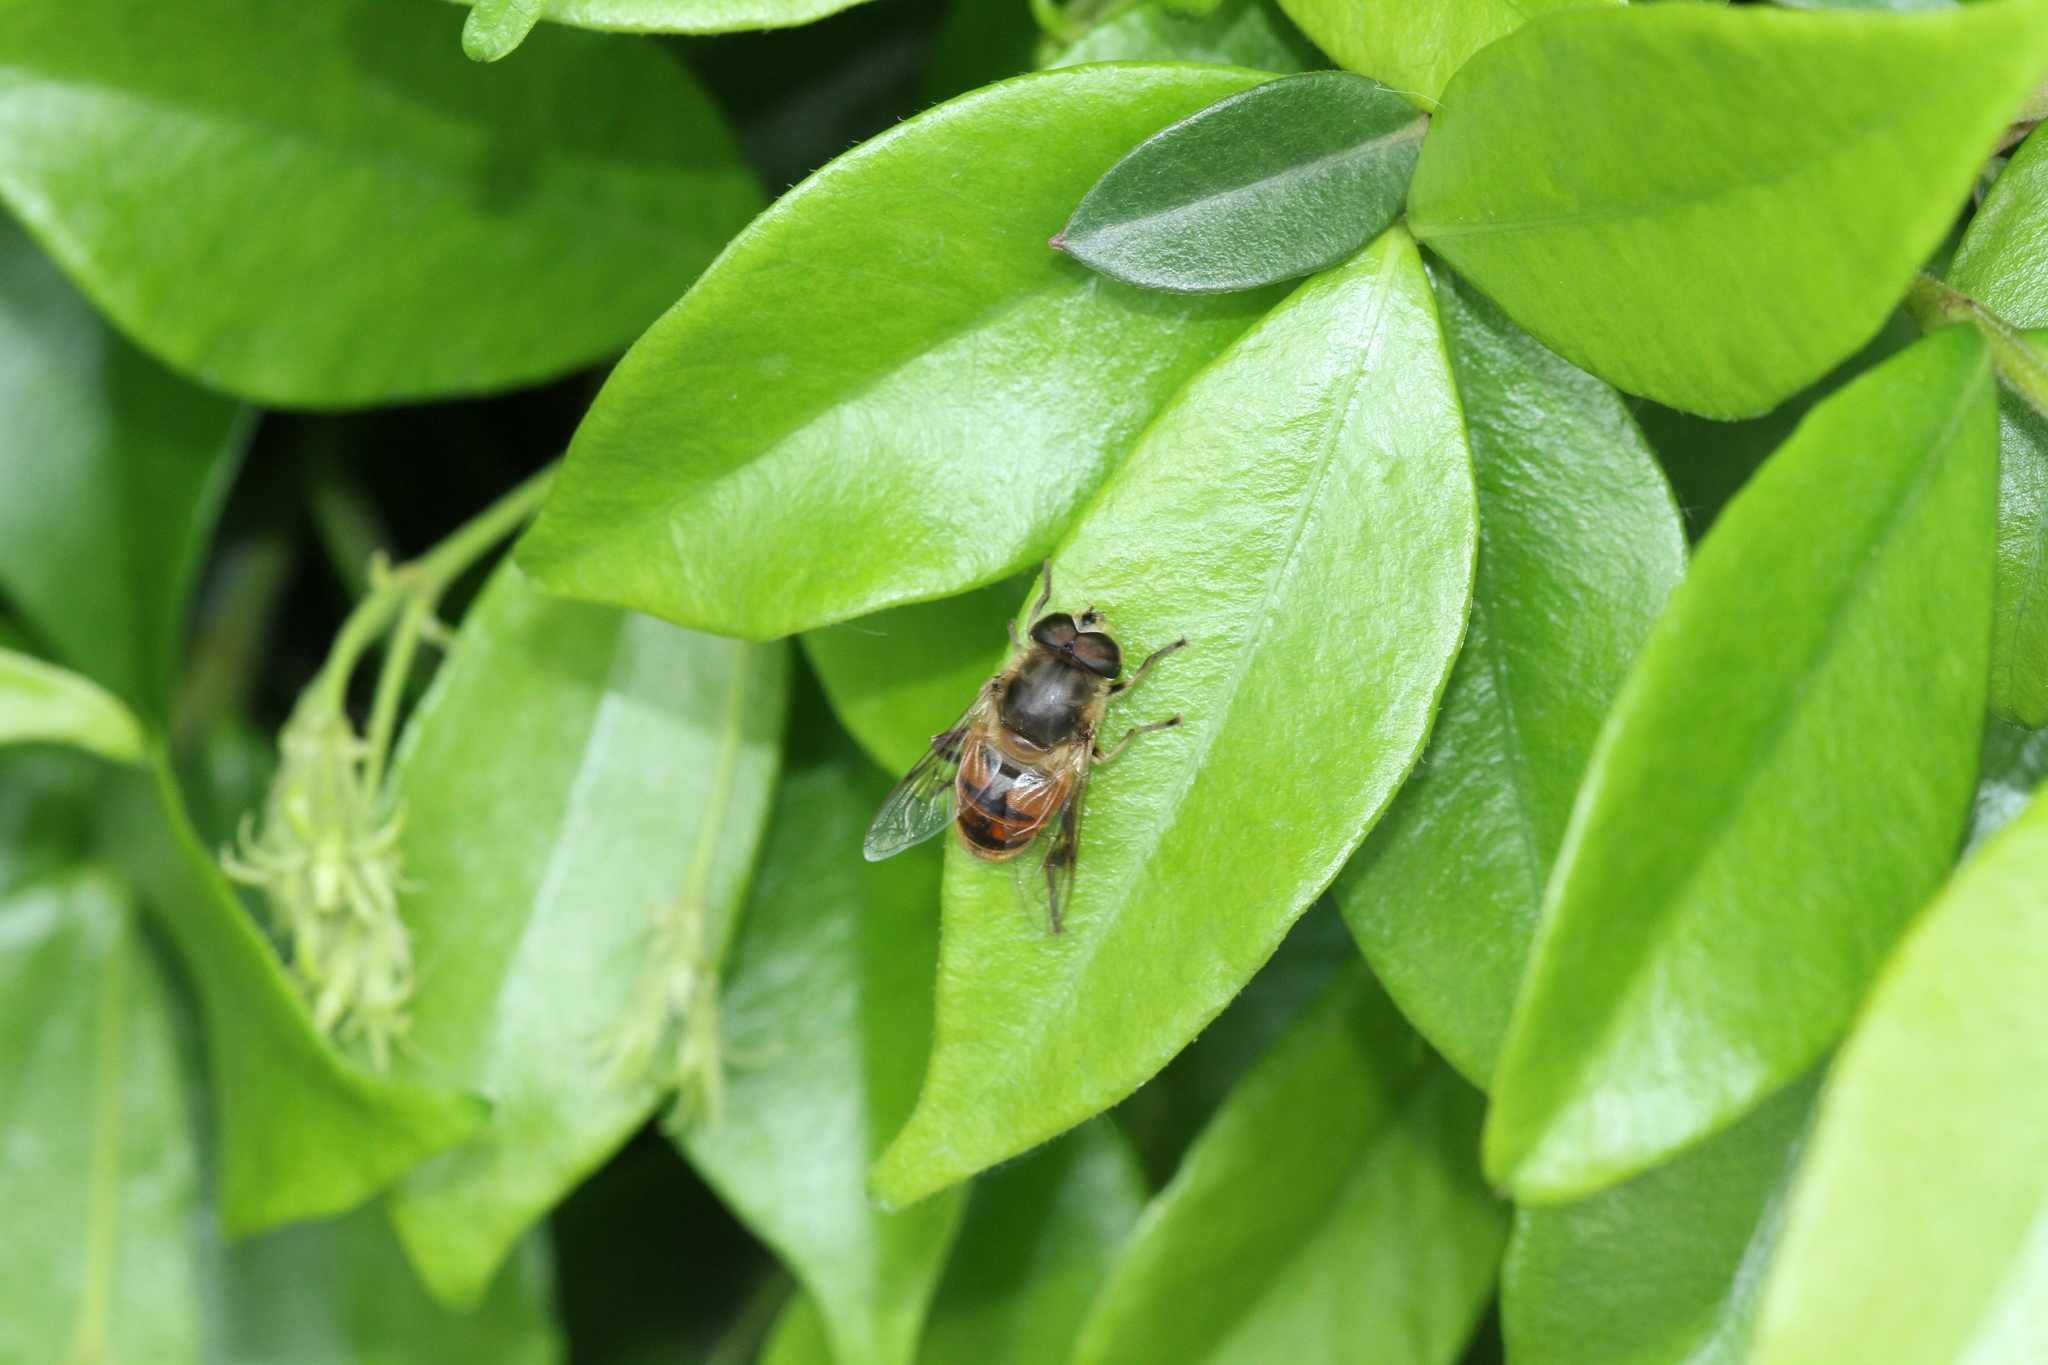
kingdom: Animalia
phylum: Arthropoda
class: Insecta
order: Diptera
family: Syrphidae
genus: Eristalis
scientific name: Eristalis tenax
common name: Drone fly
